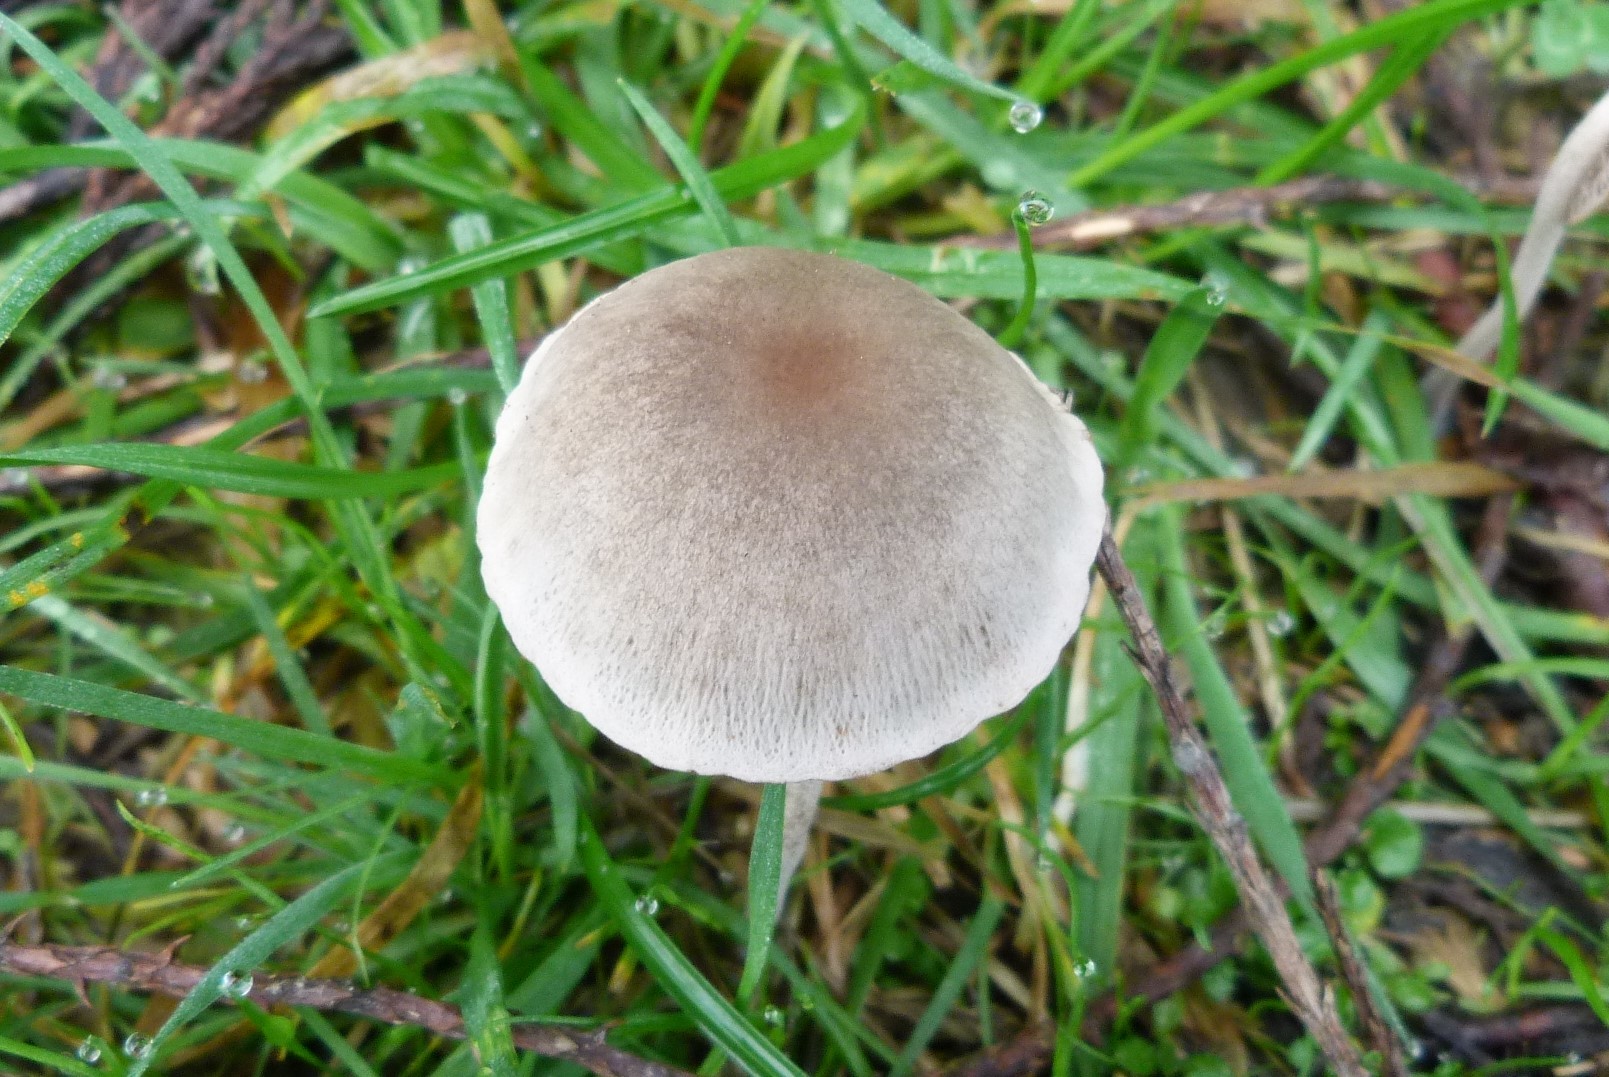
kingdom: Fungi
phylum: Basidiomycota
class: Agaricomycetes
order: Agaricales
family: Bolbitiaceae
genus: Panaeolina
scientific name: Panaeolina foenisecii
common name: Brown hay cap
